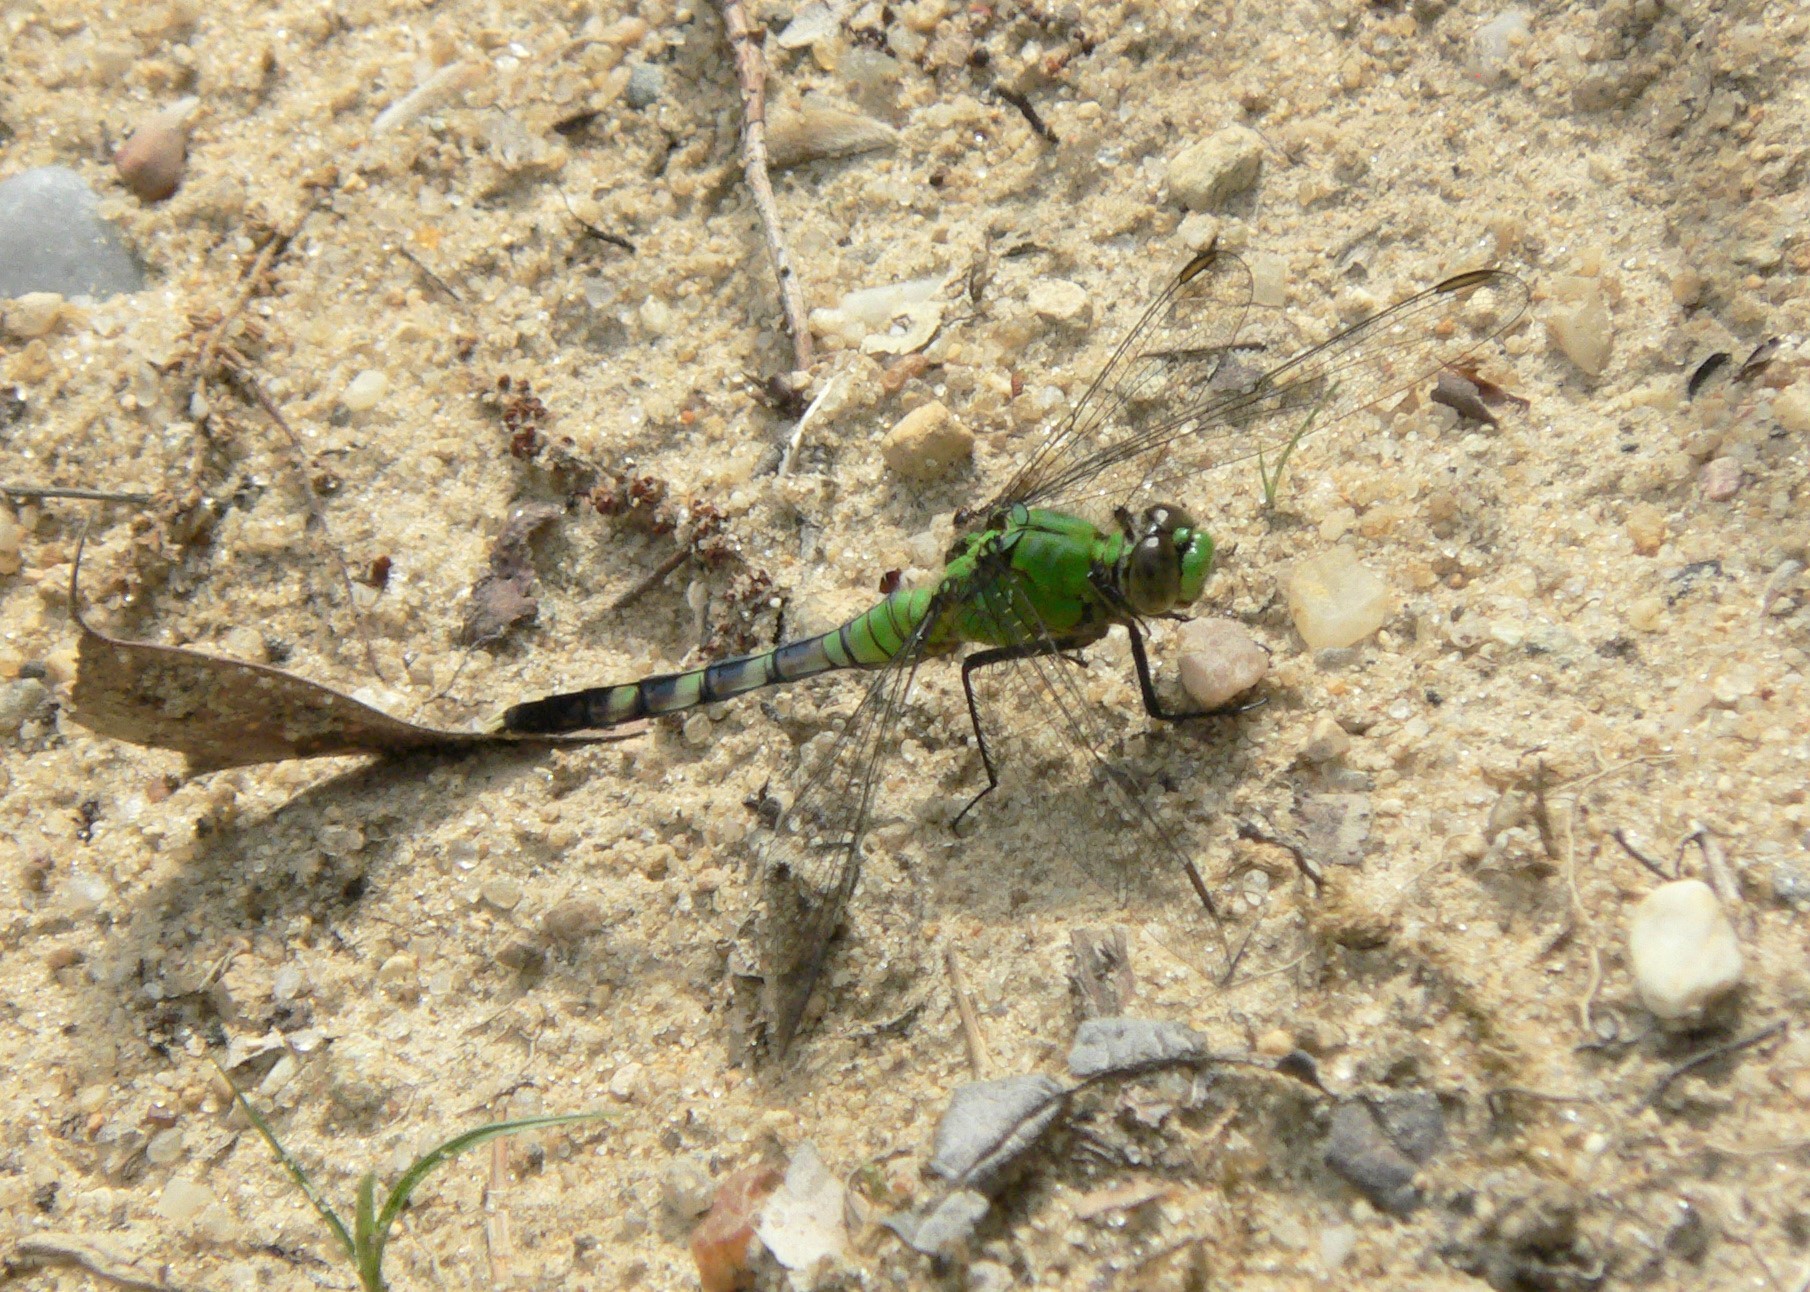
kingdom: Animalia
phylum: Arthropoda
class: Insecta
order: Odonata
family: Libellulidae
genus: Erythemis
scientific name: Erythemis simplicicollis
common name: Eastern pondhawk
